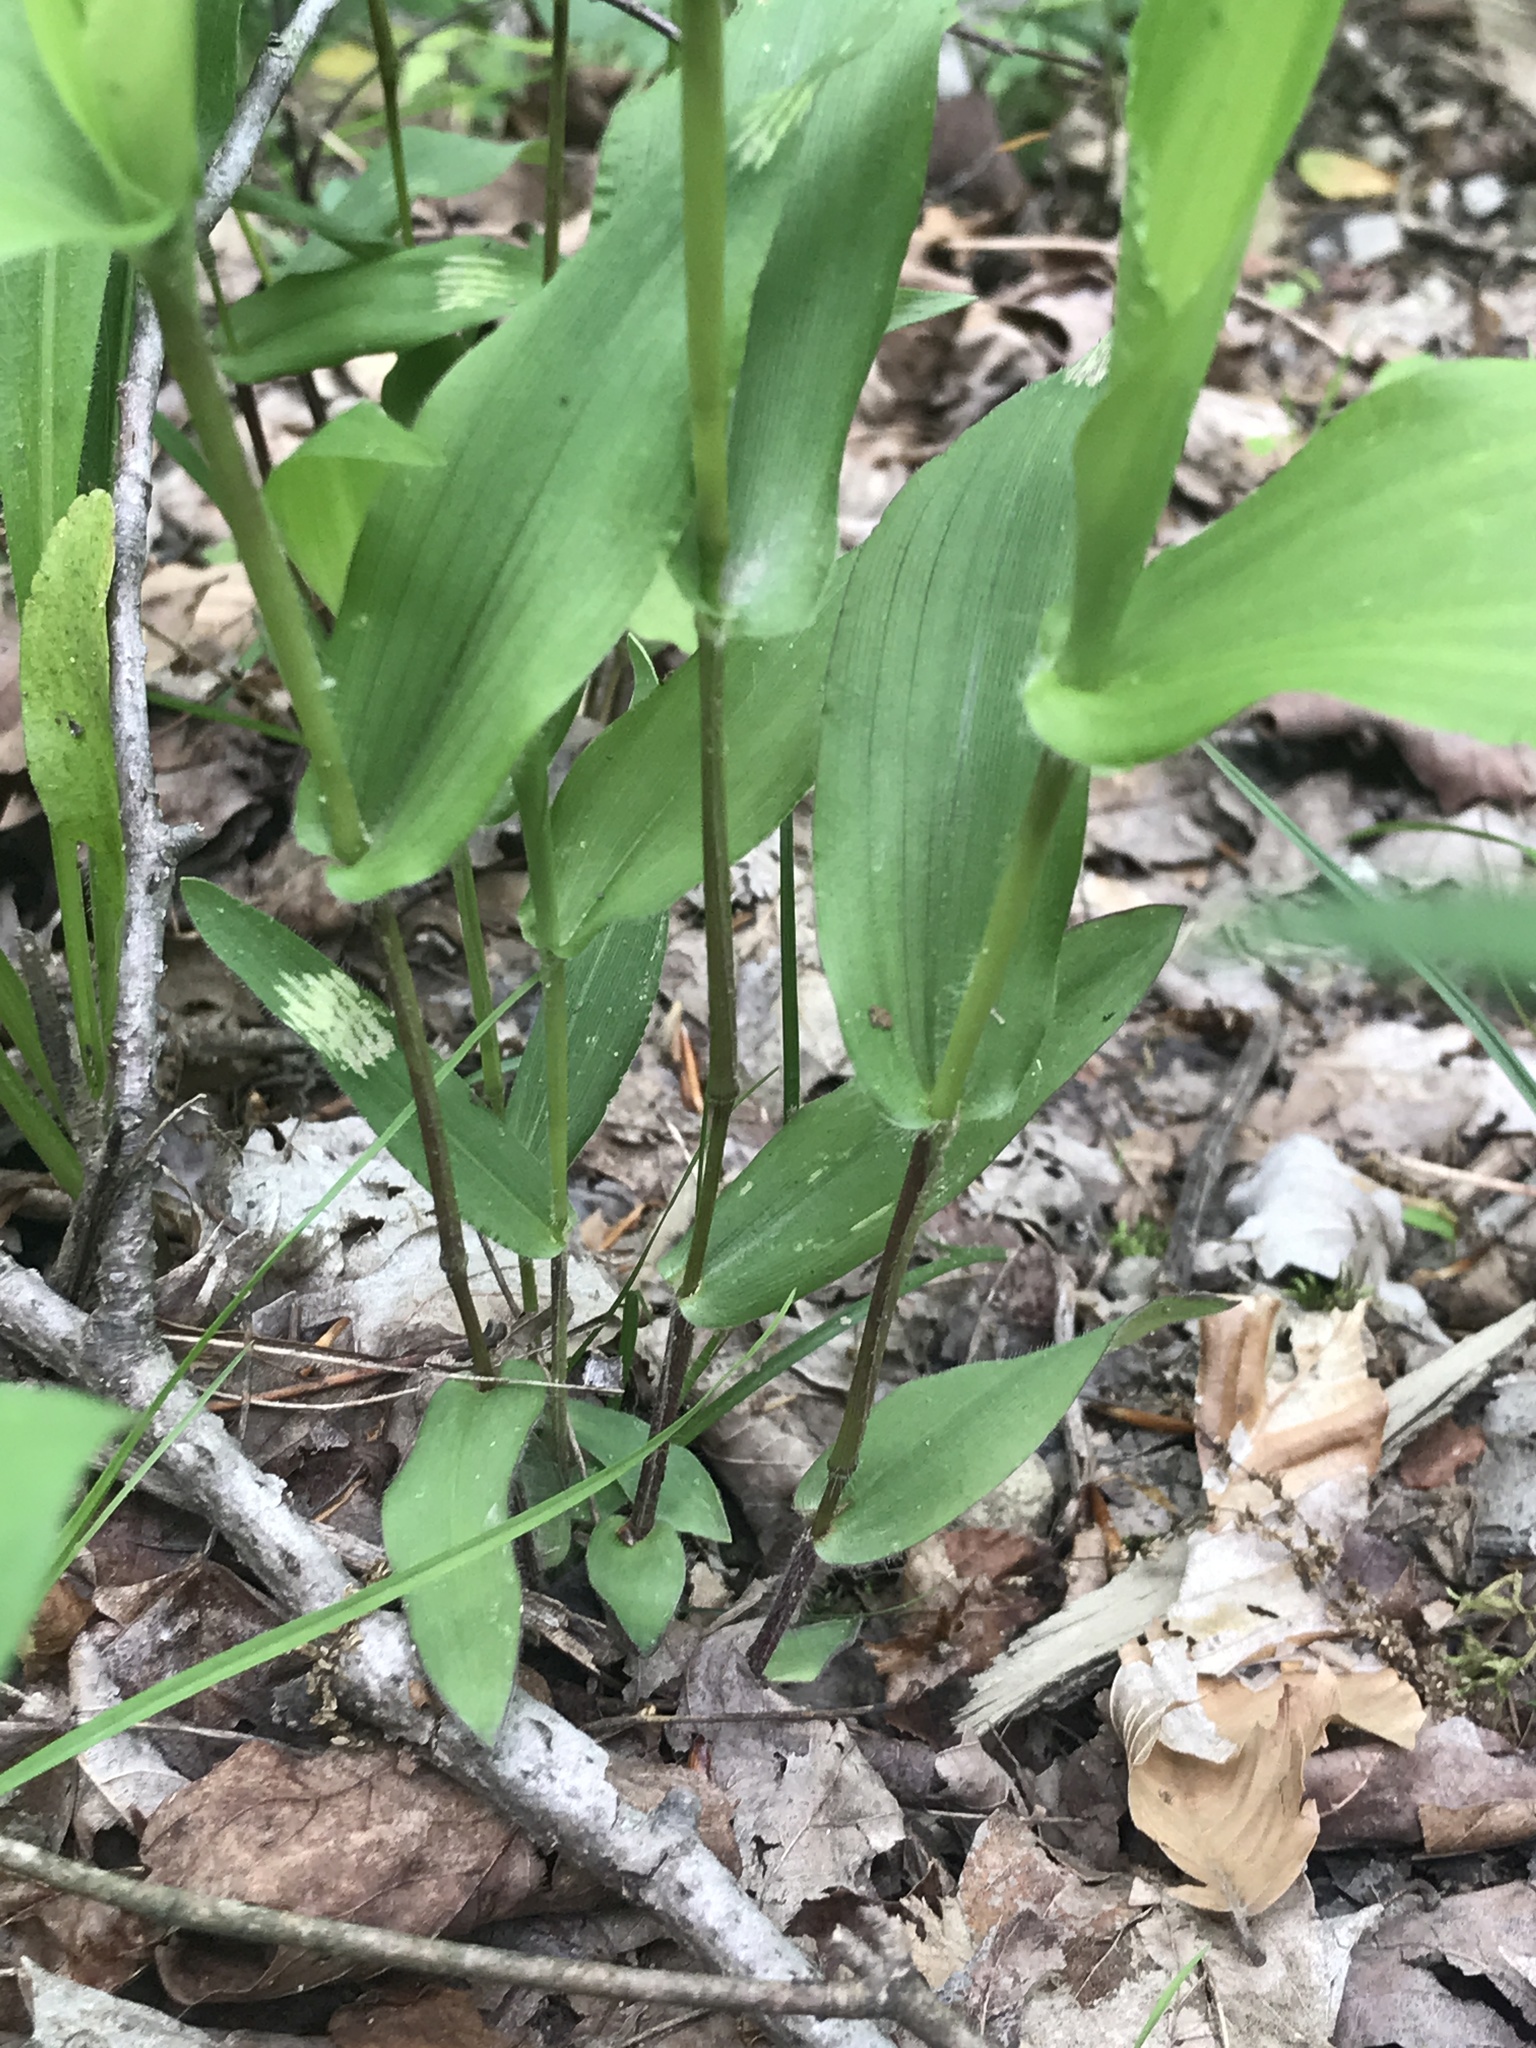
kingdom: Plantae
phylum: Tracheophyta
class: Liliopsida
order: Poales
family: Poaceae
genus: Dichanthelium
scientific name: Dichanthelium boscii
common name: Bosc's panic grass
